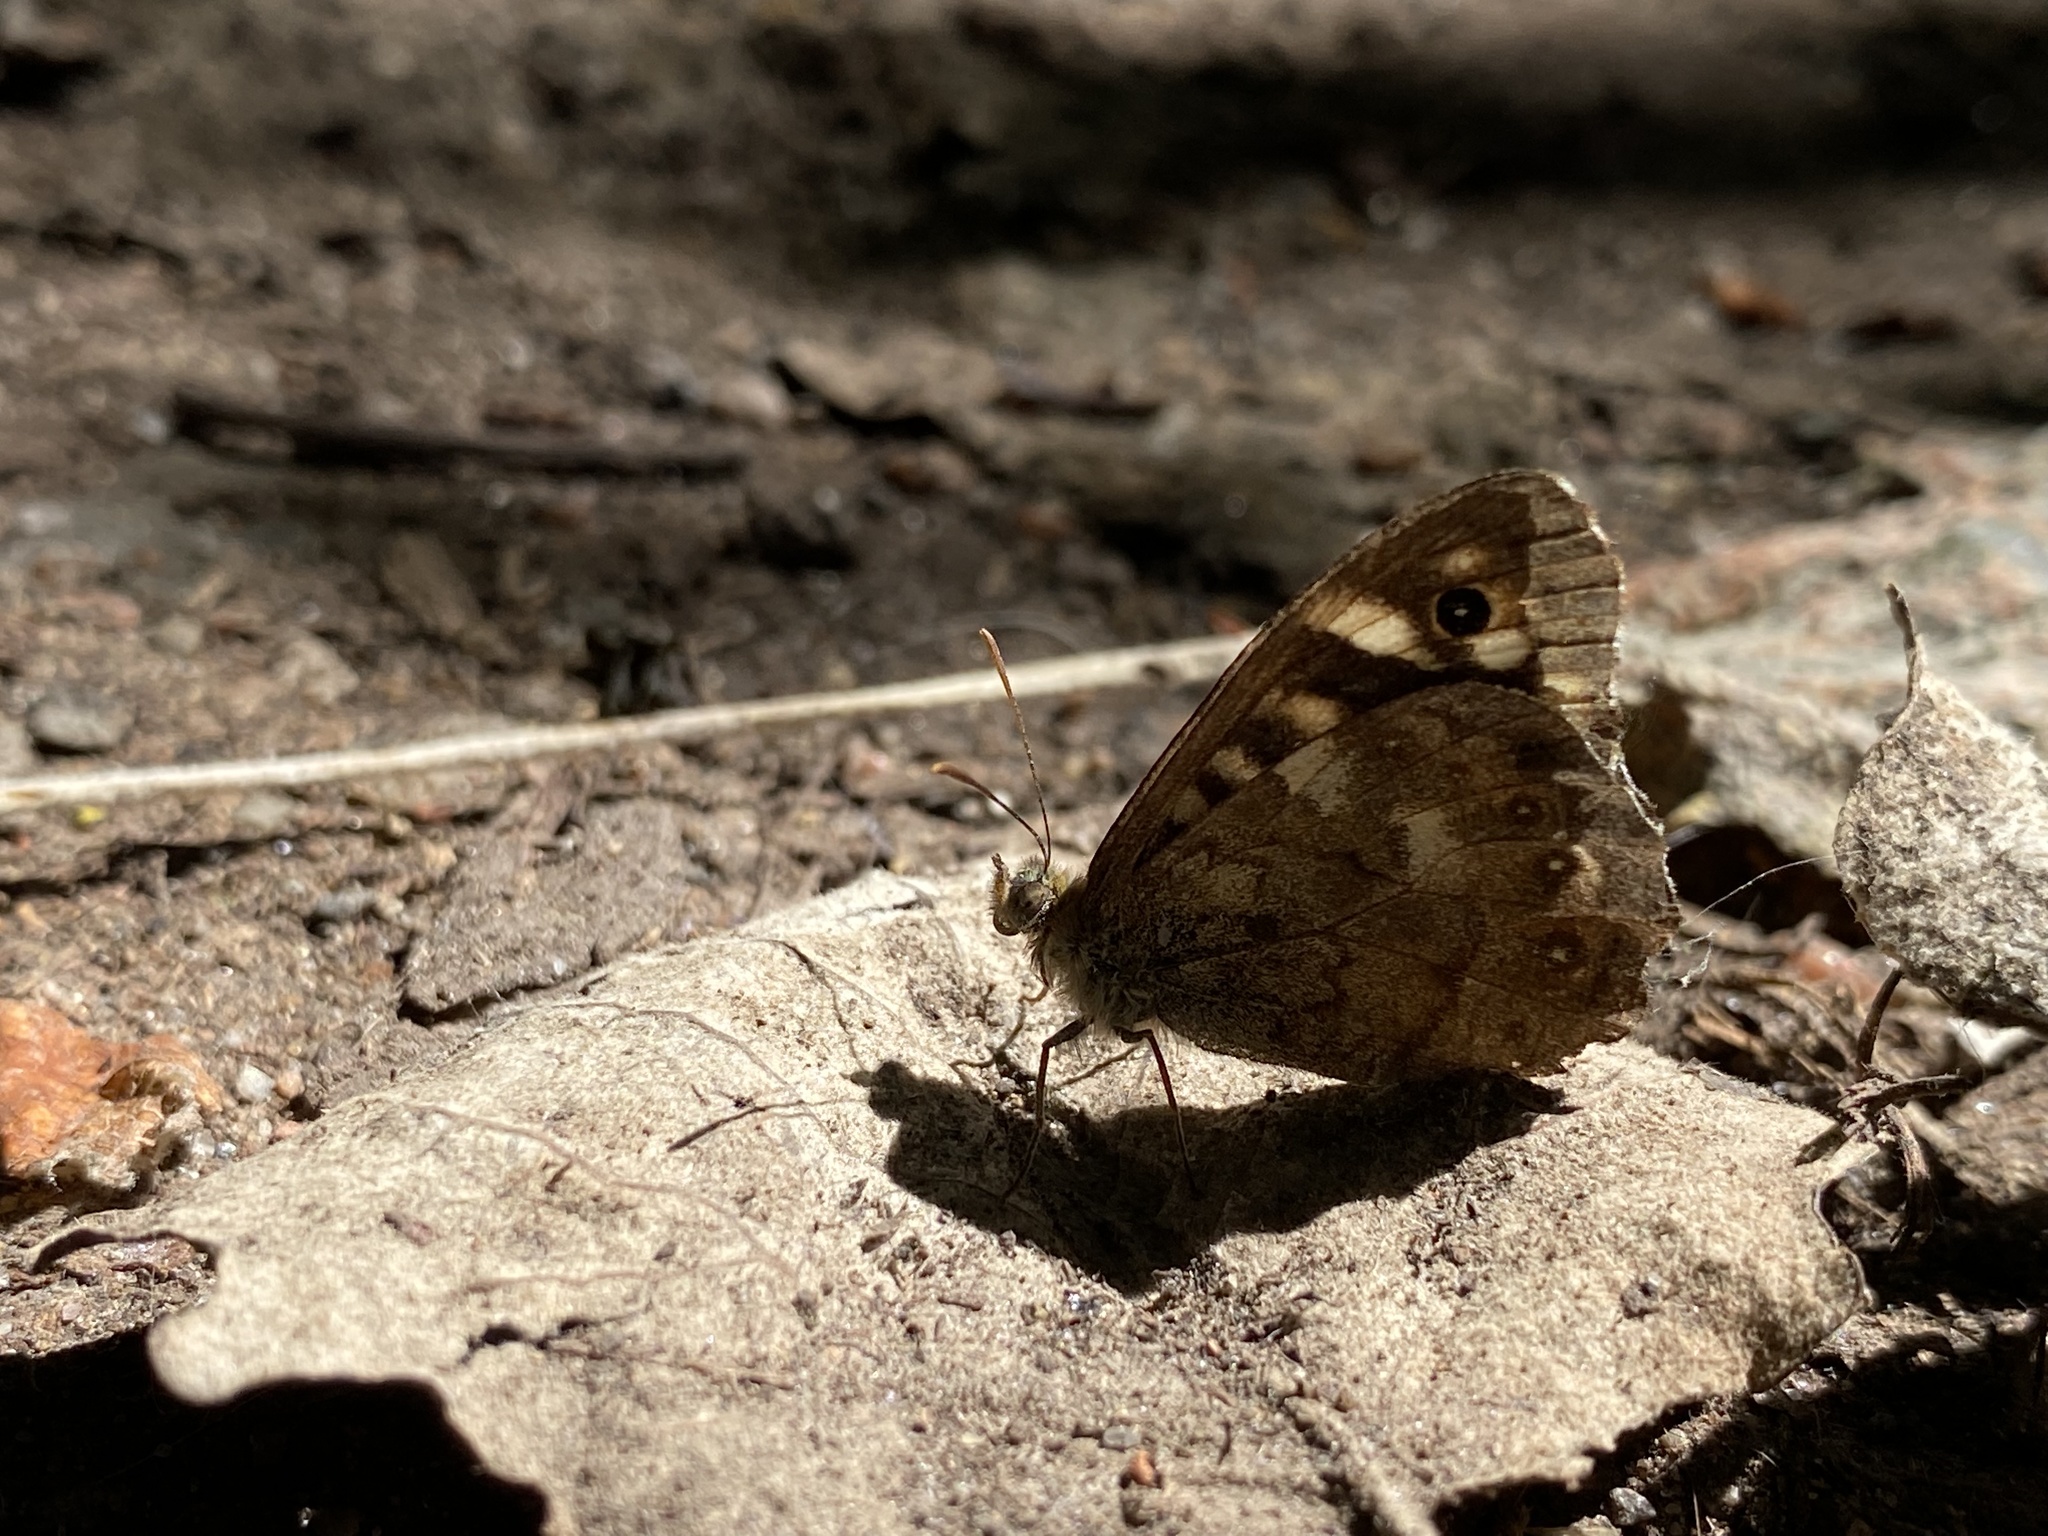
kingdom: Animalia
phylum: Arthropoda
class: Insecta
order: Lepidoptera
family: Nymphalidae
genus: Pararge
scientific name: Pararge aegeria
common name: Speckled wood
